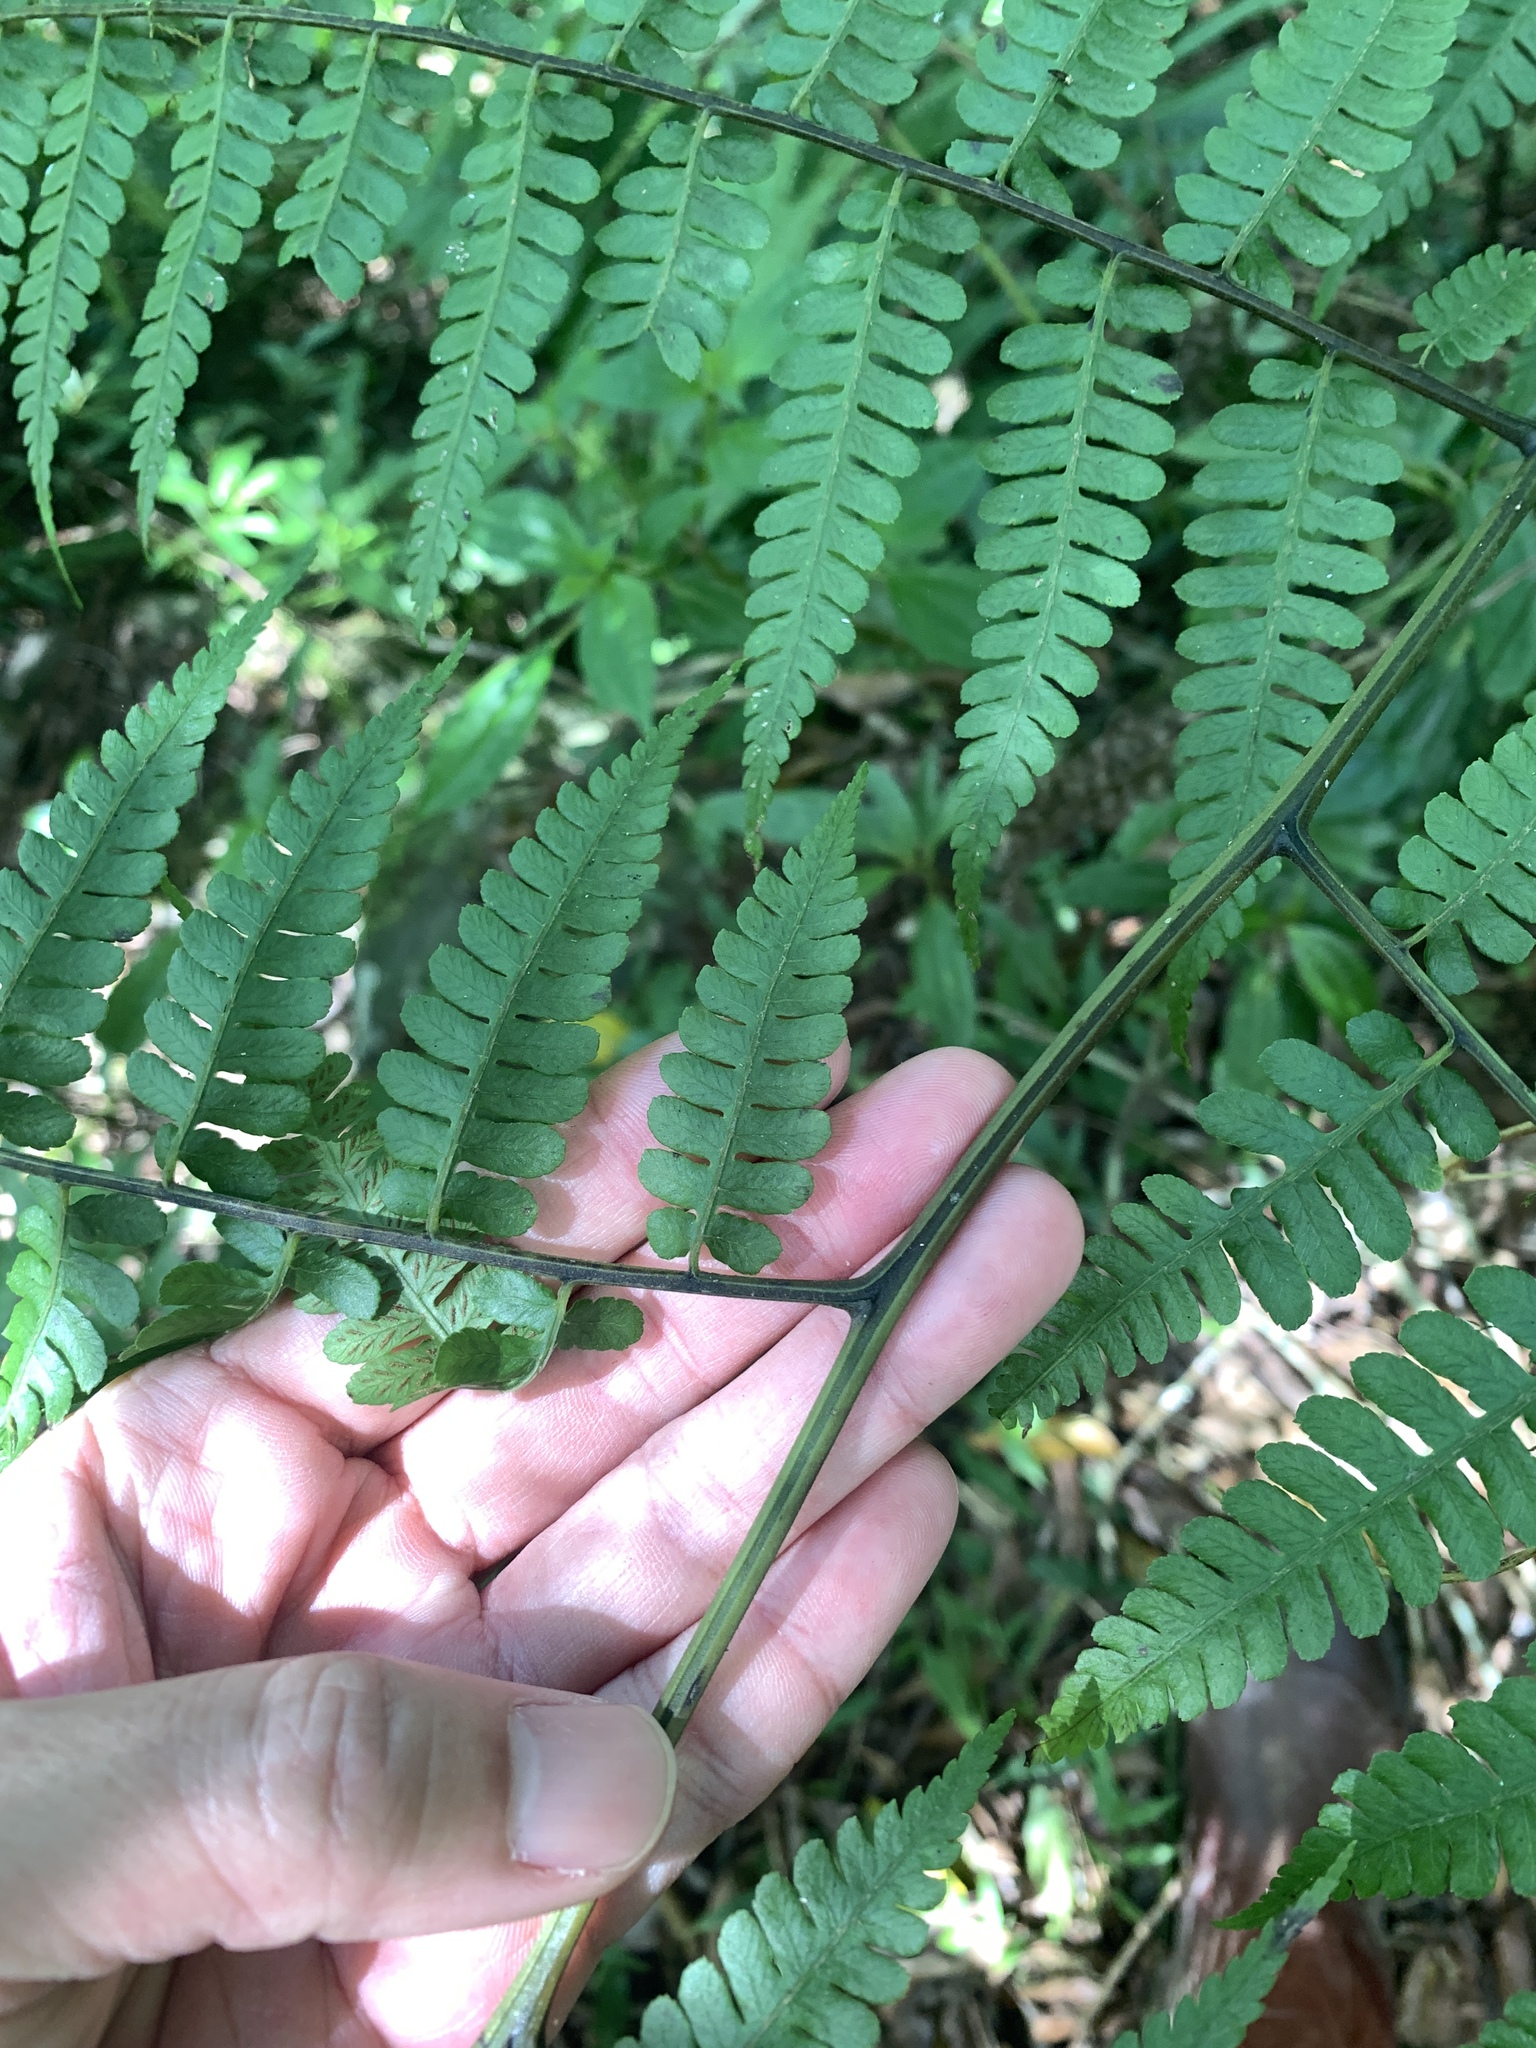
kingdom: Plantae
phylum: Tracheophyta
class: Polypodiopsida
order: Polypodiales
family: Athyriaceae
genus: Diplazium
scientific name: Diplazium laxifrons
